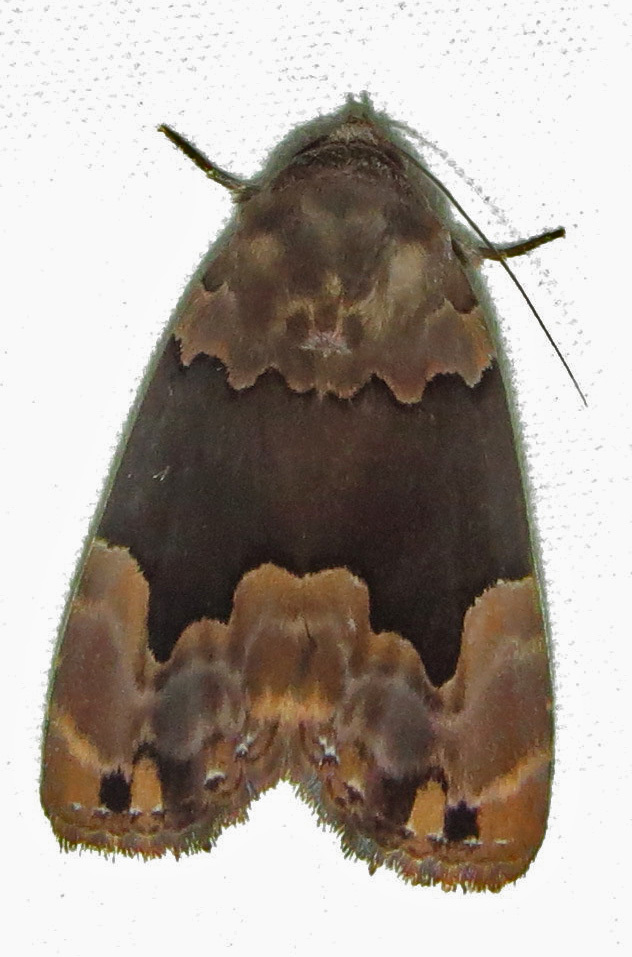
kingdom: Animalia
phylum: Arthropoda
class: Insecta
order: Lepidoptera
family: Erebidae
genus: Dinumma
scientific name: Dinumma deponens
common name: Purplish moth
